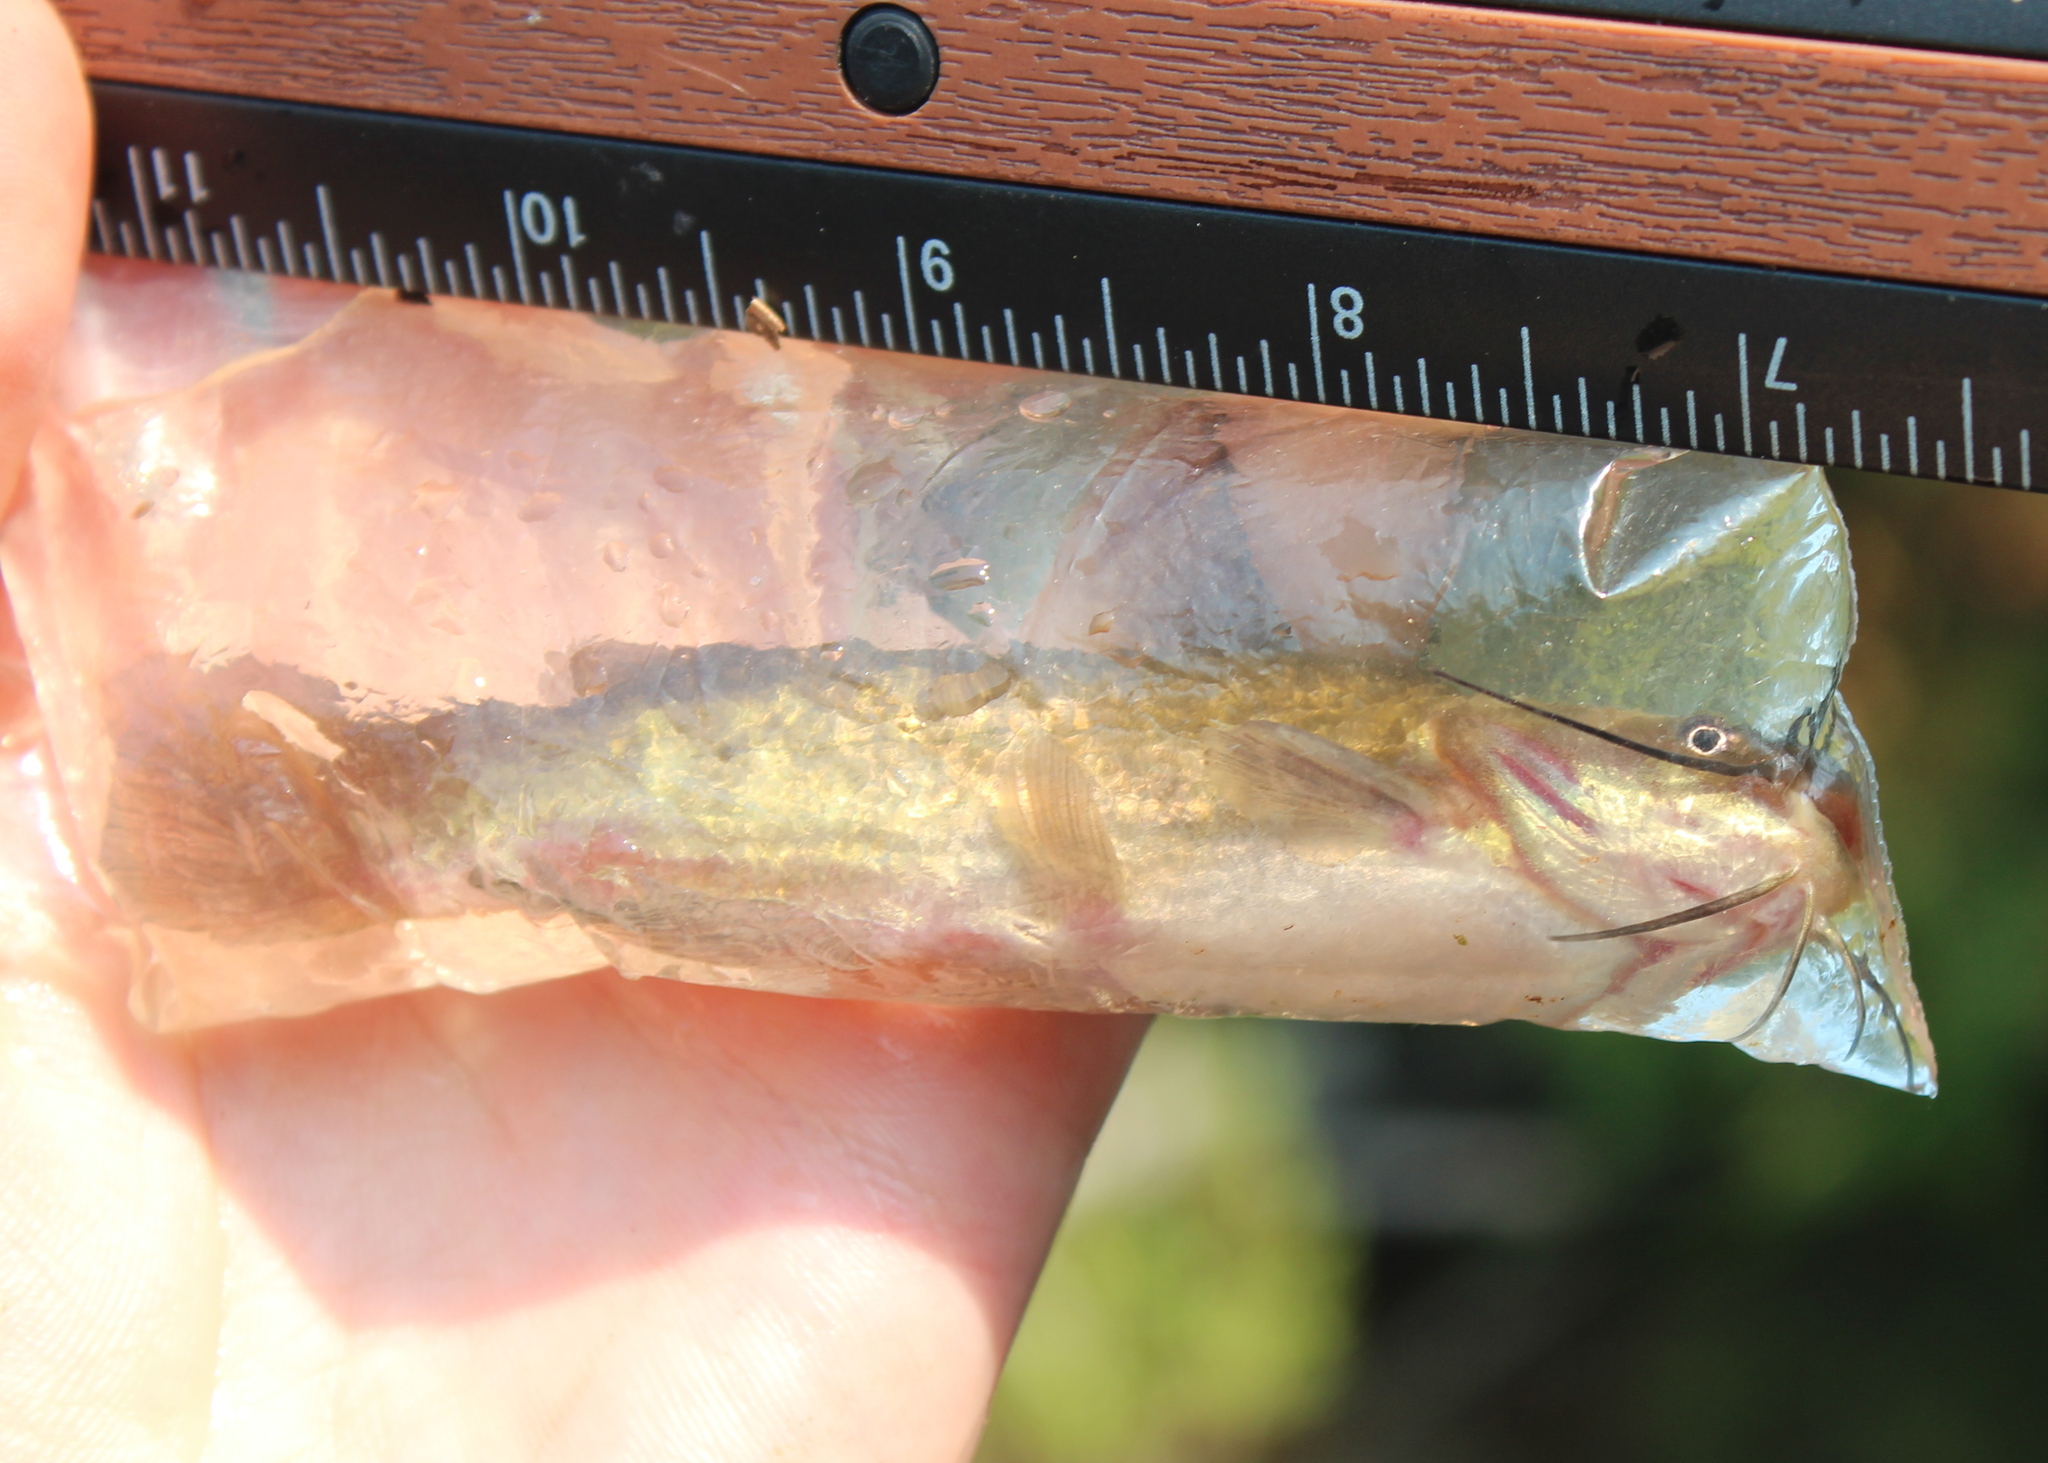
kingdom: Animalia
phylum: Chordata
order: Siluriformes
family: Ictaluridae
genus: Ameiurus
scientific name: Ameiurus nebulosus
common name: Brown bullhead
